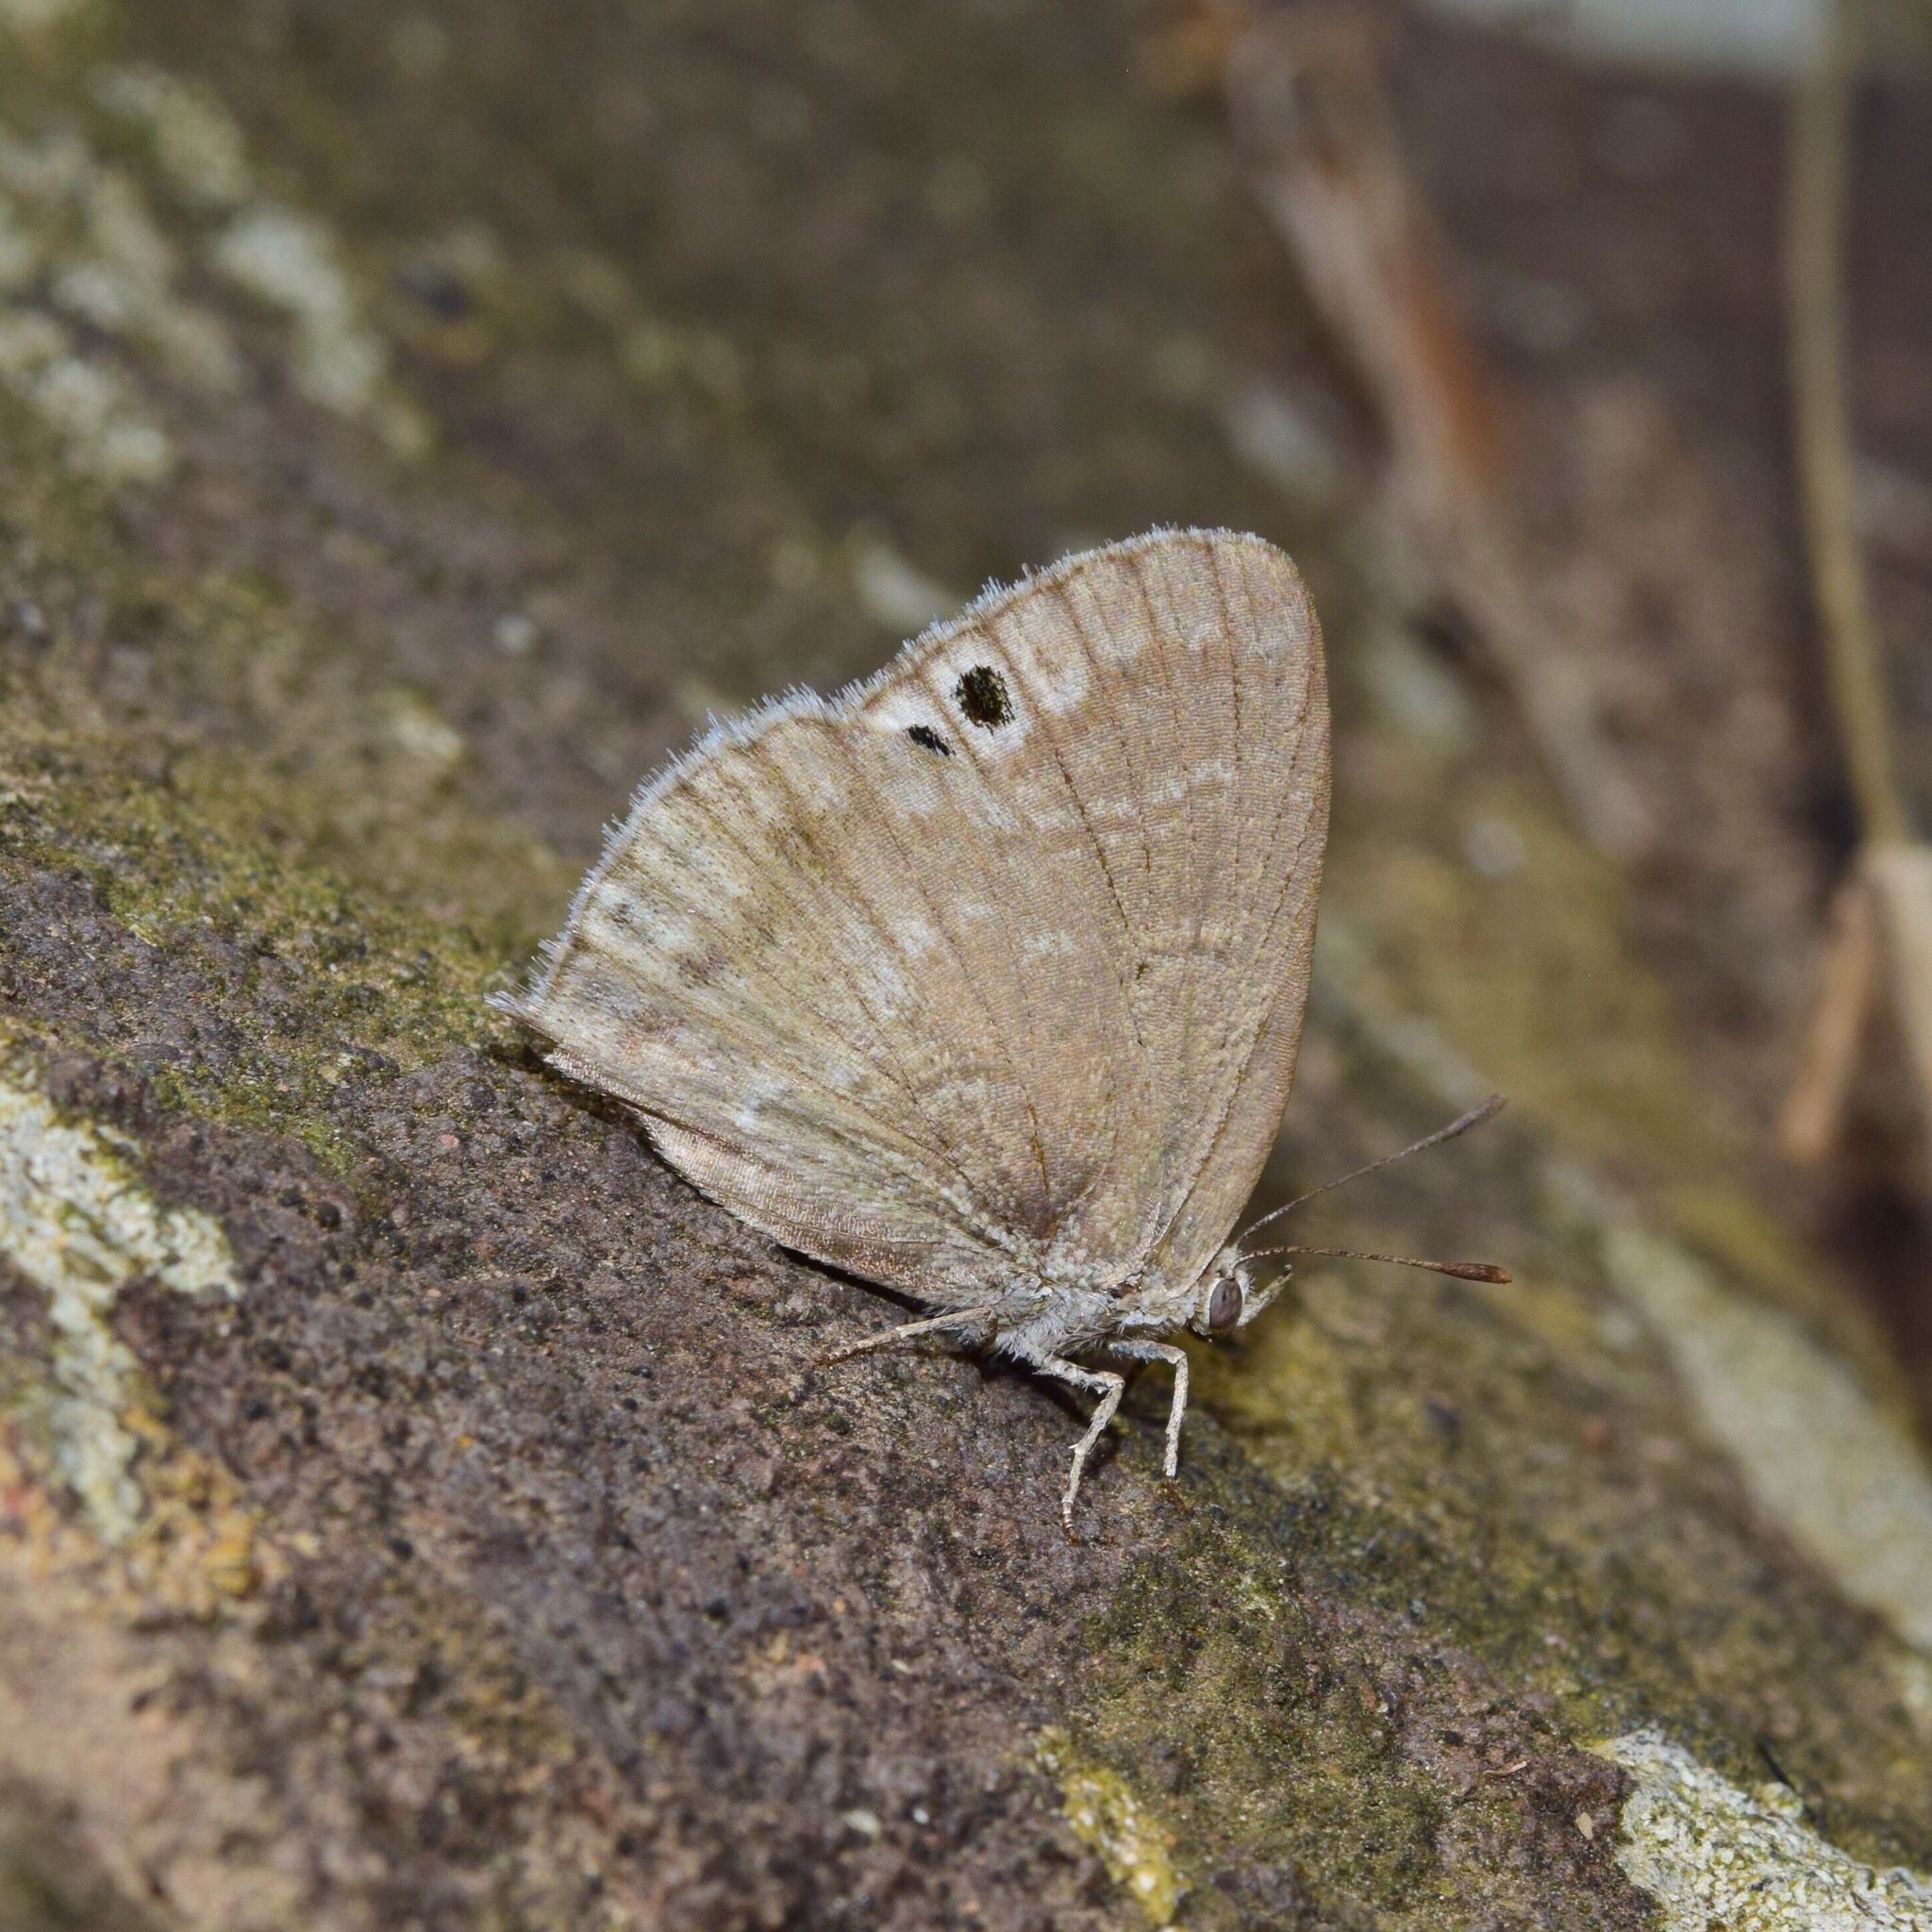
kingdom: Animalia
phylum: Arthropoda
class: Insecta
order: Lepidoptera
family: Lycaenidae
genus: Leptomyrina
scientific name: Leptomyrina gorgias
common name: Common black-eye
